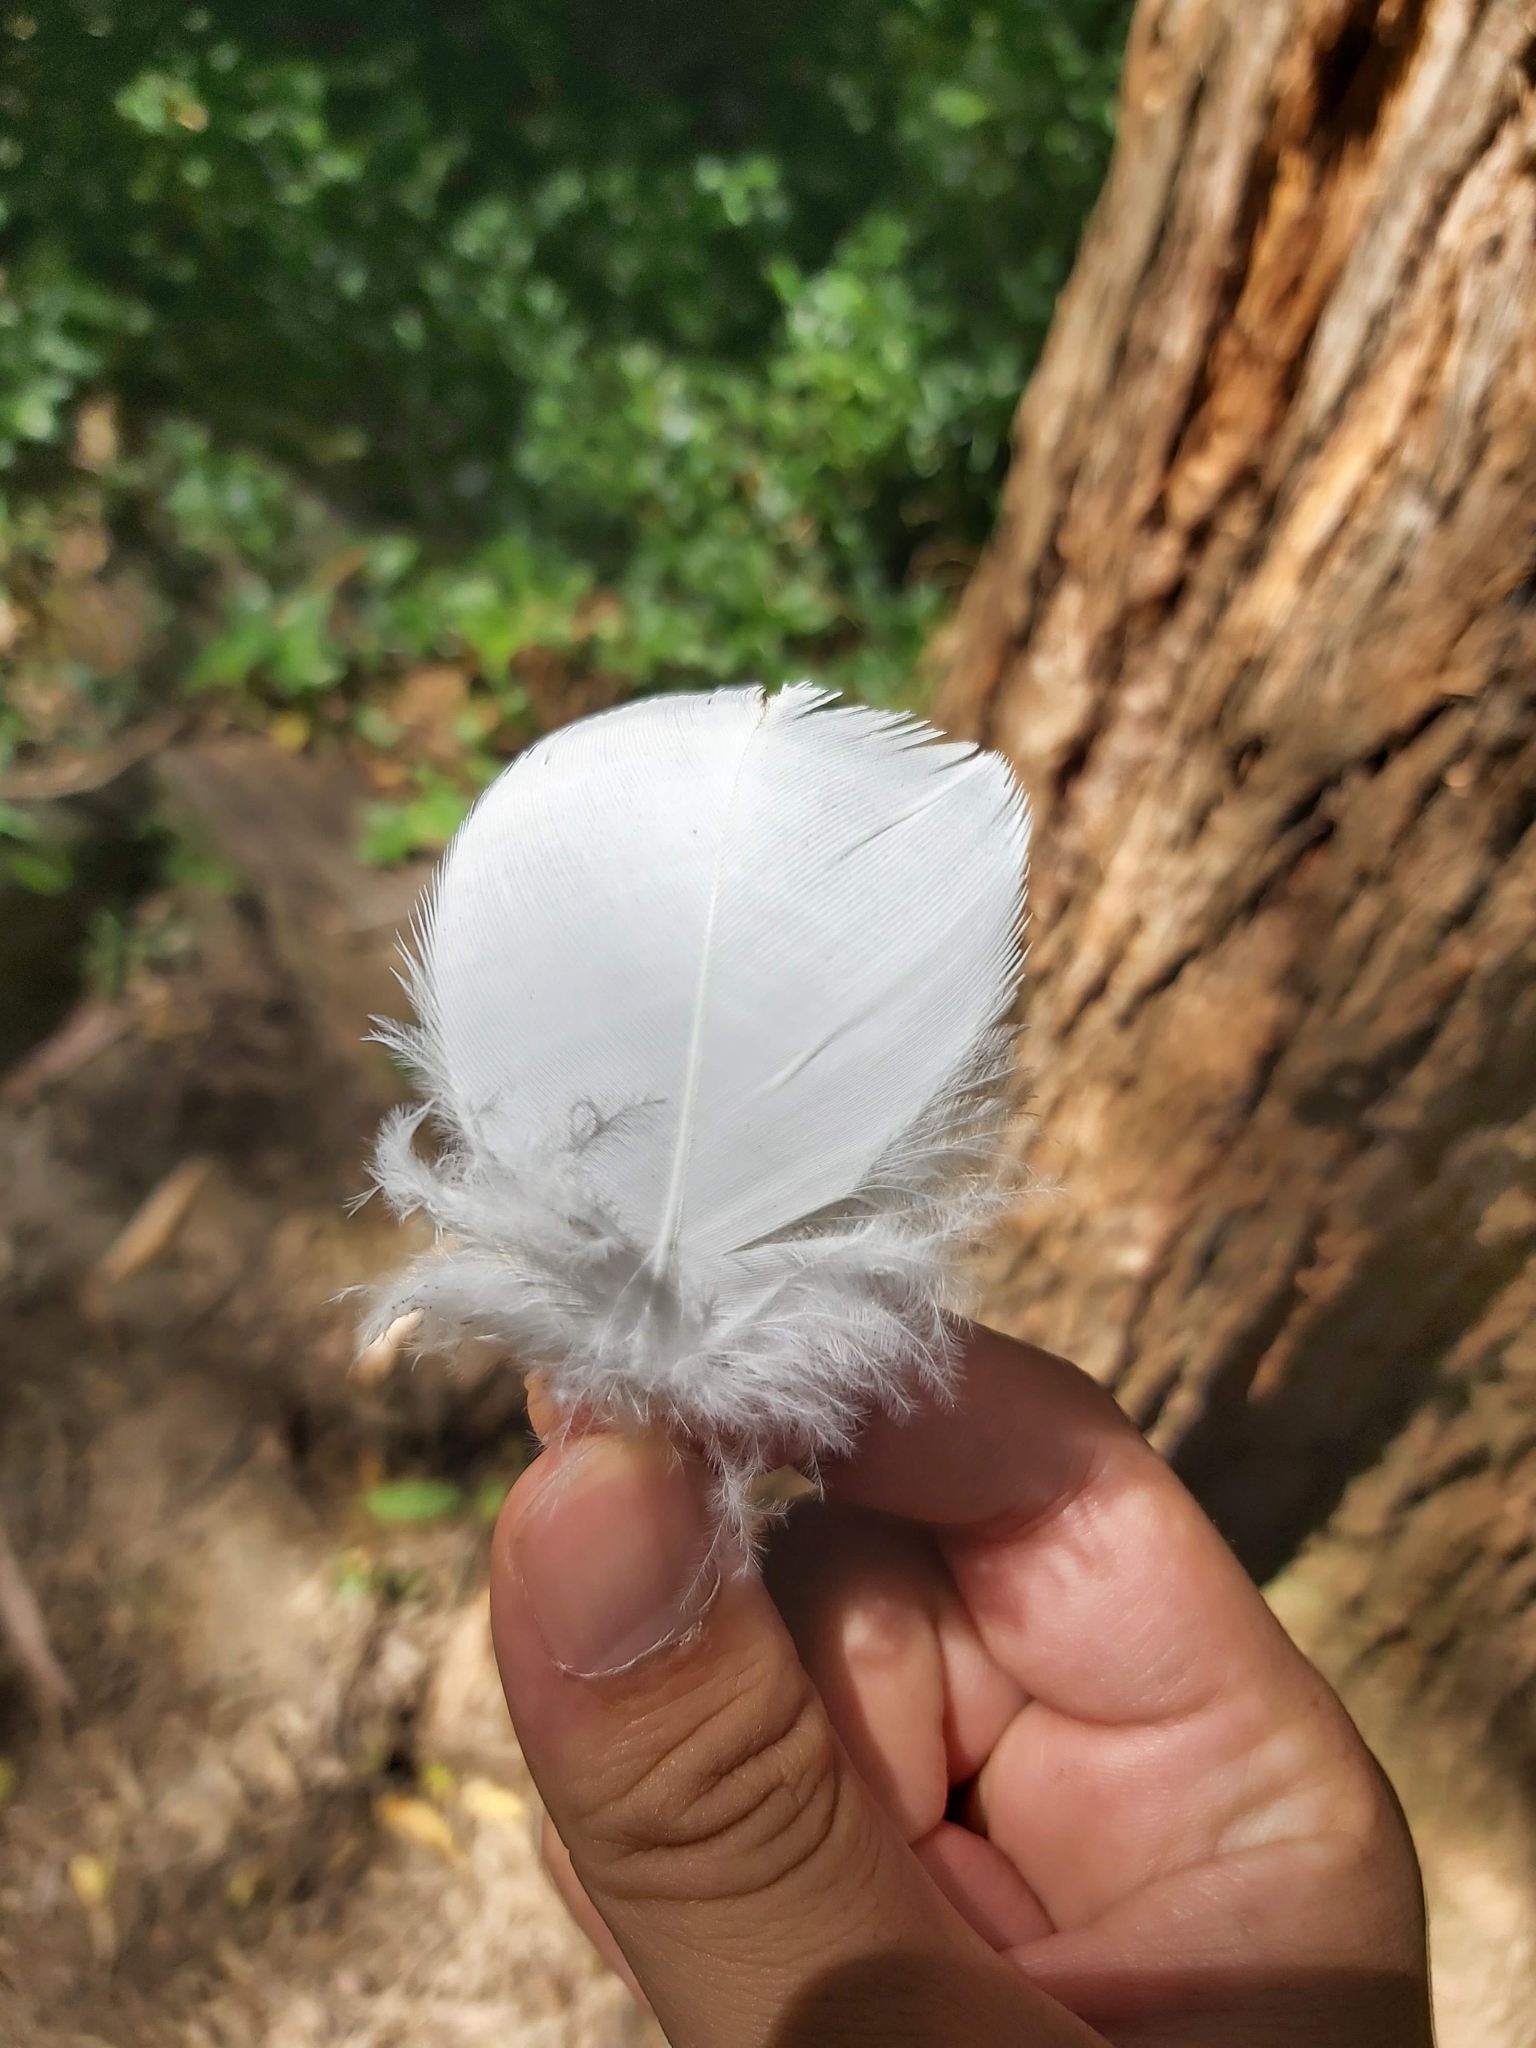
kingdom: Animalia
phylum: Chordata
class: Aves
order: Psittaciformes
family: Psittacidae
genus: Cacatua
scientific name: Cacatua galerita
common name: Sulphur-crested cockatoo
